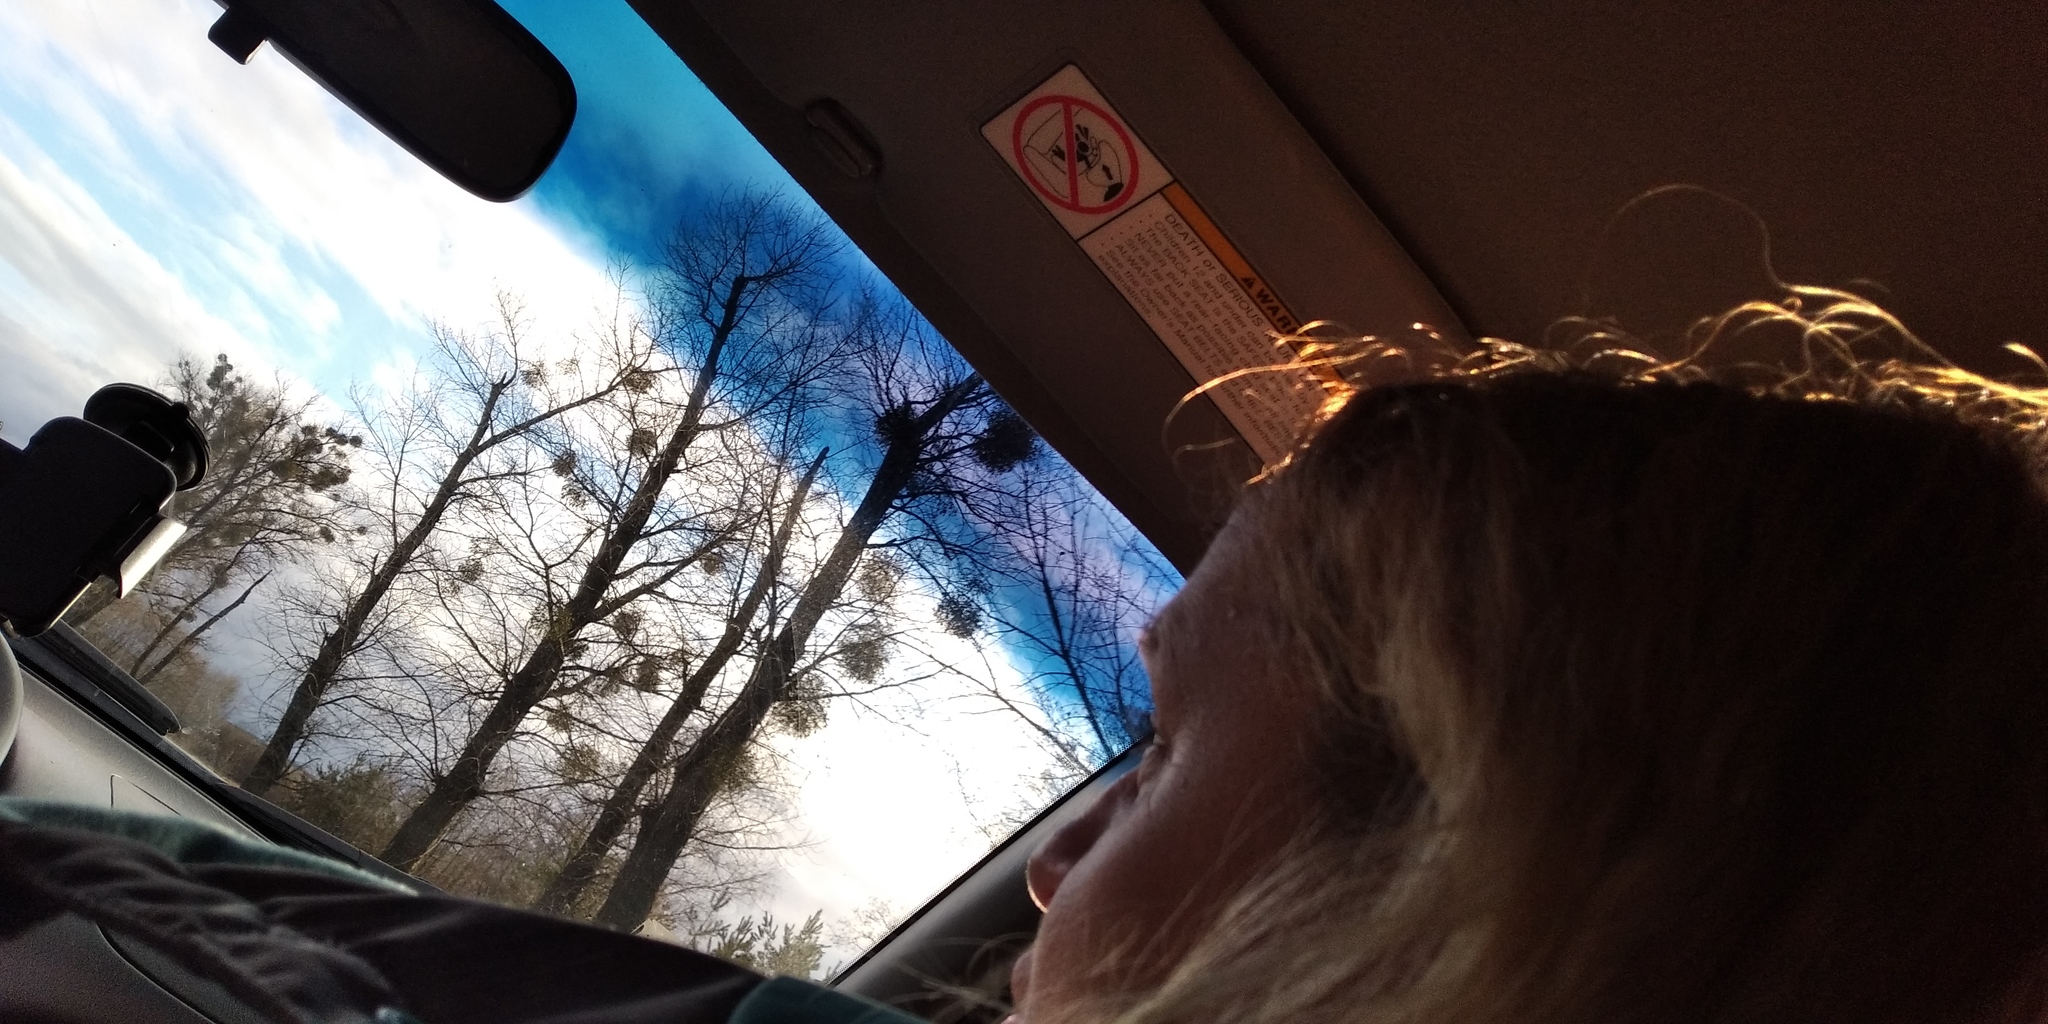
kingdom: Plantae
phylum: Tracheophyta
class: Magnoliopsida
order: Santalales
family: Viscaceae
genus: Viscum
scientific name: Viscum album
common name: Mistletoe
